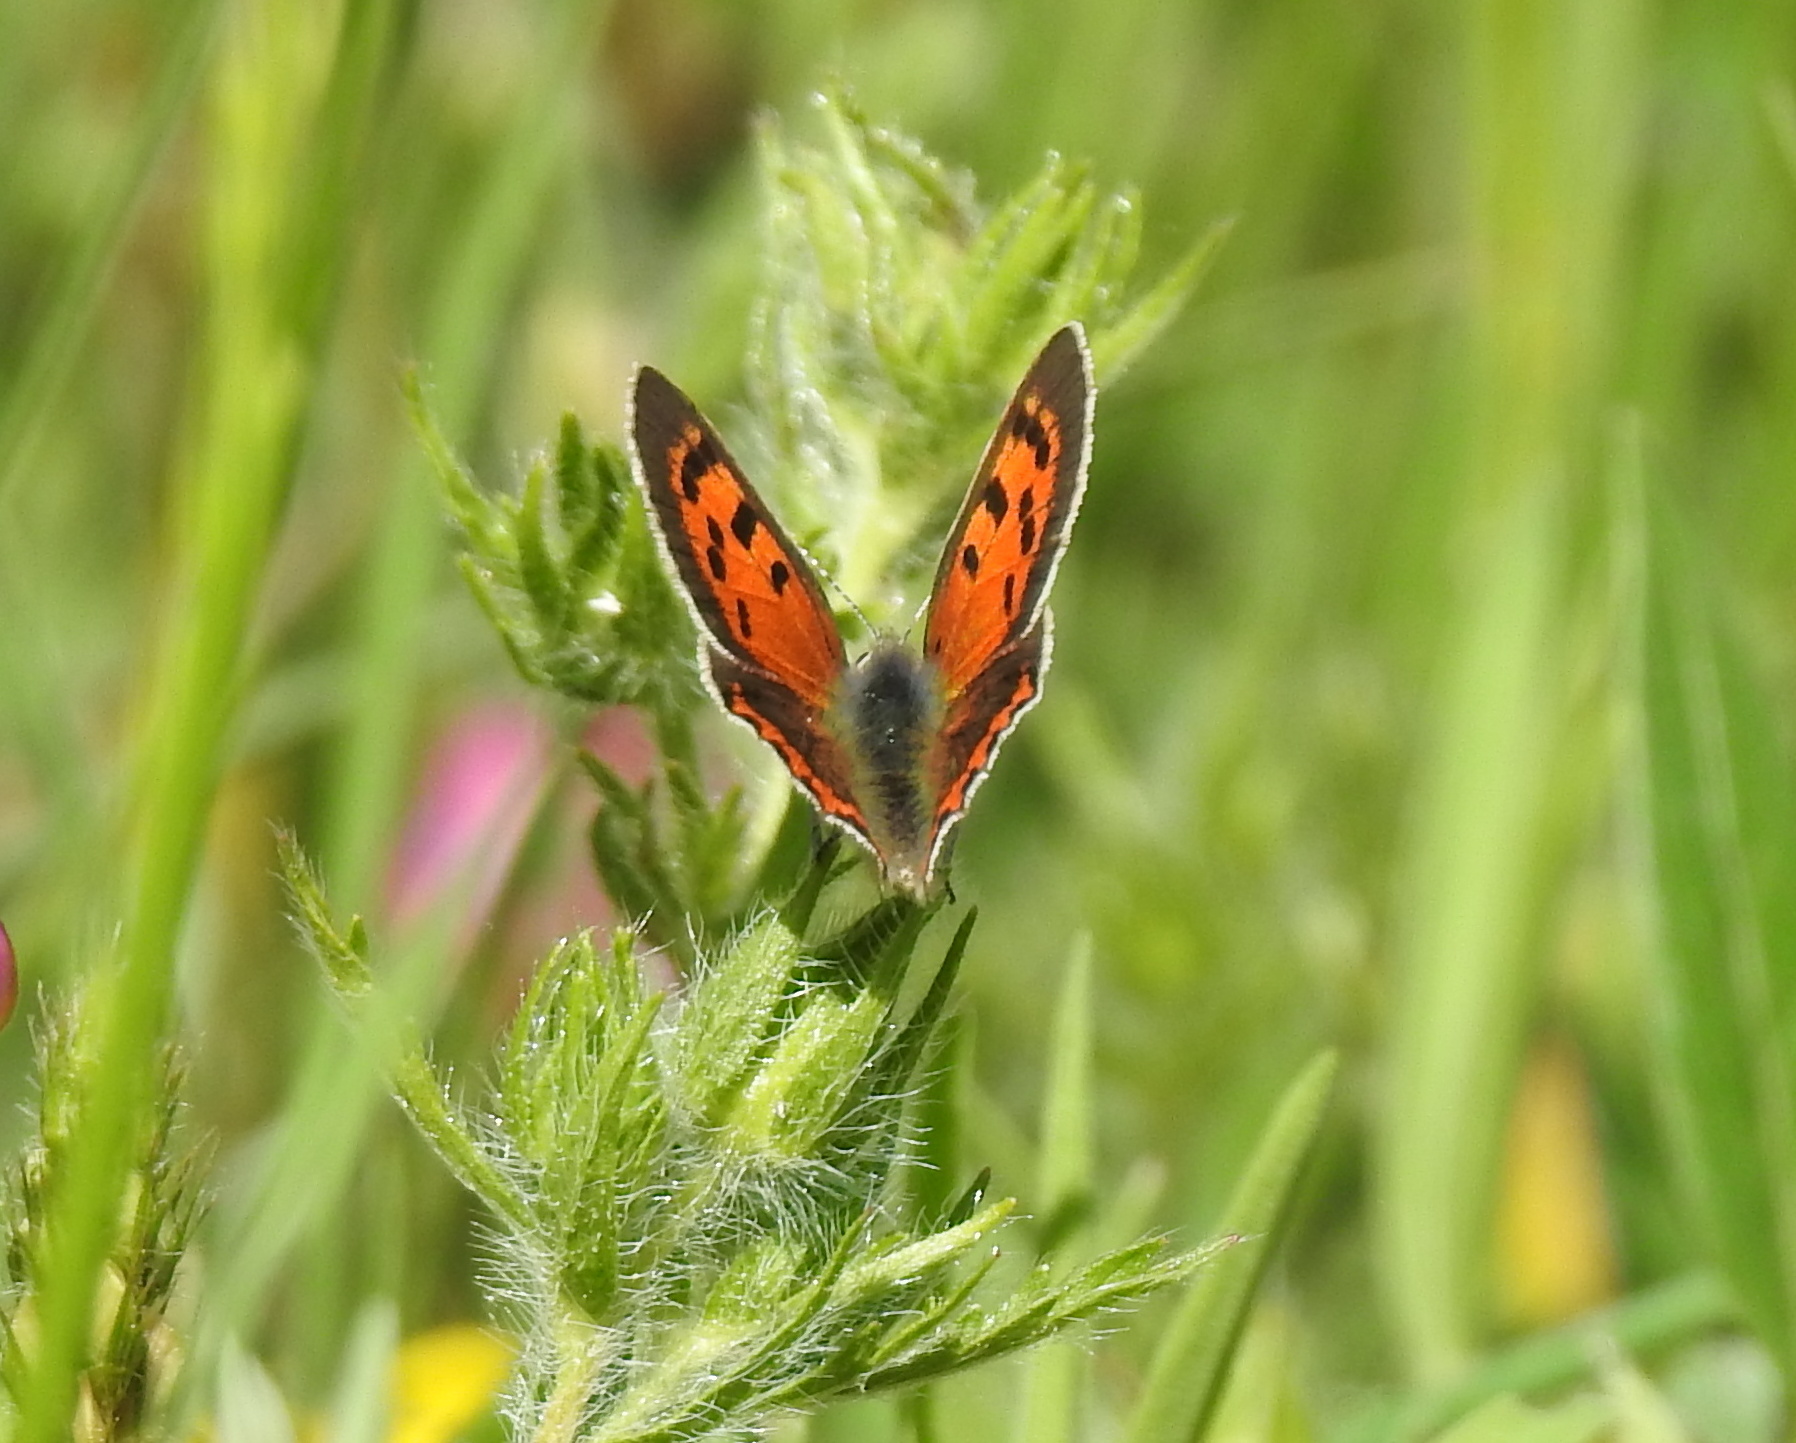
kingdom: Animalia
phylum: Arthropoda
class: Insecta
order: Lepidoptera
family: Lycaenidae
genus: Lycaena
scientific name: Lycaena phlaeas
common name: Small copper
